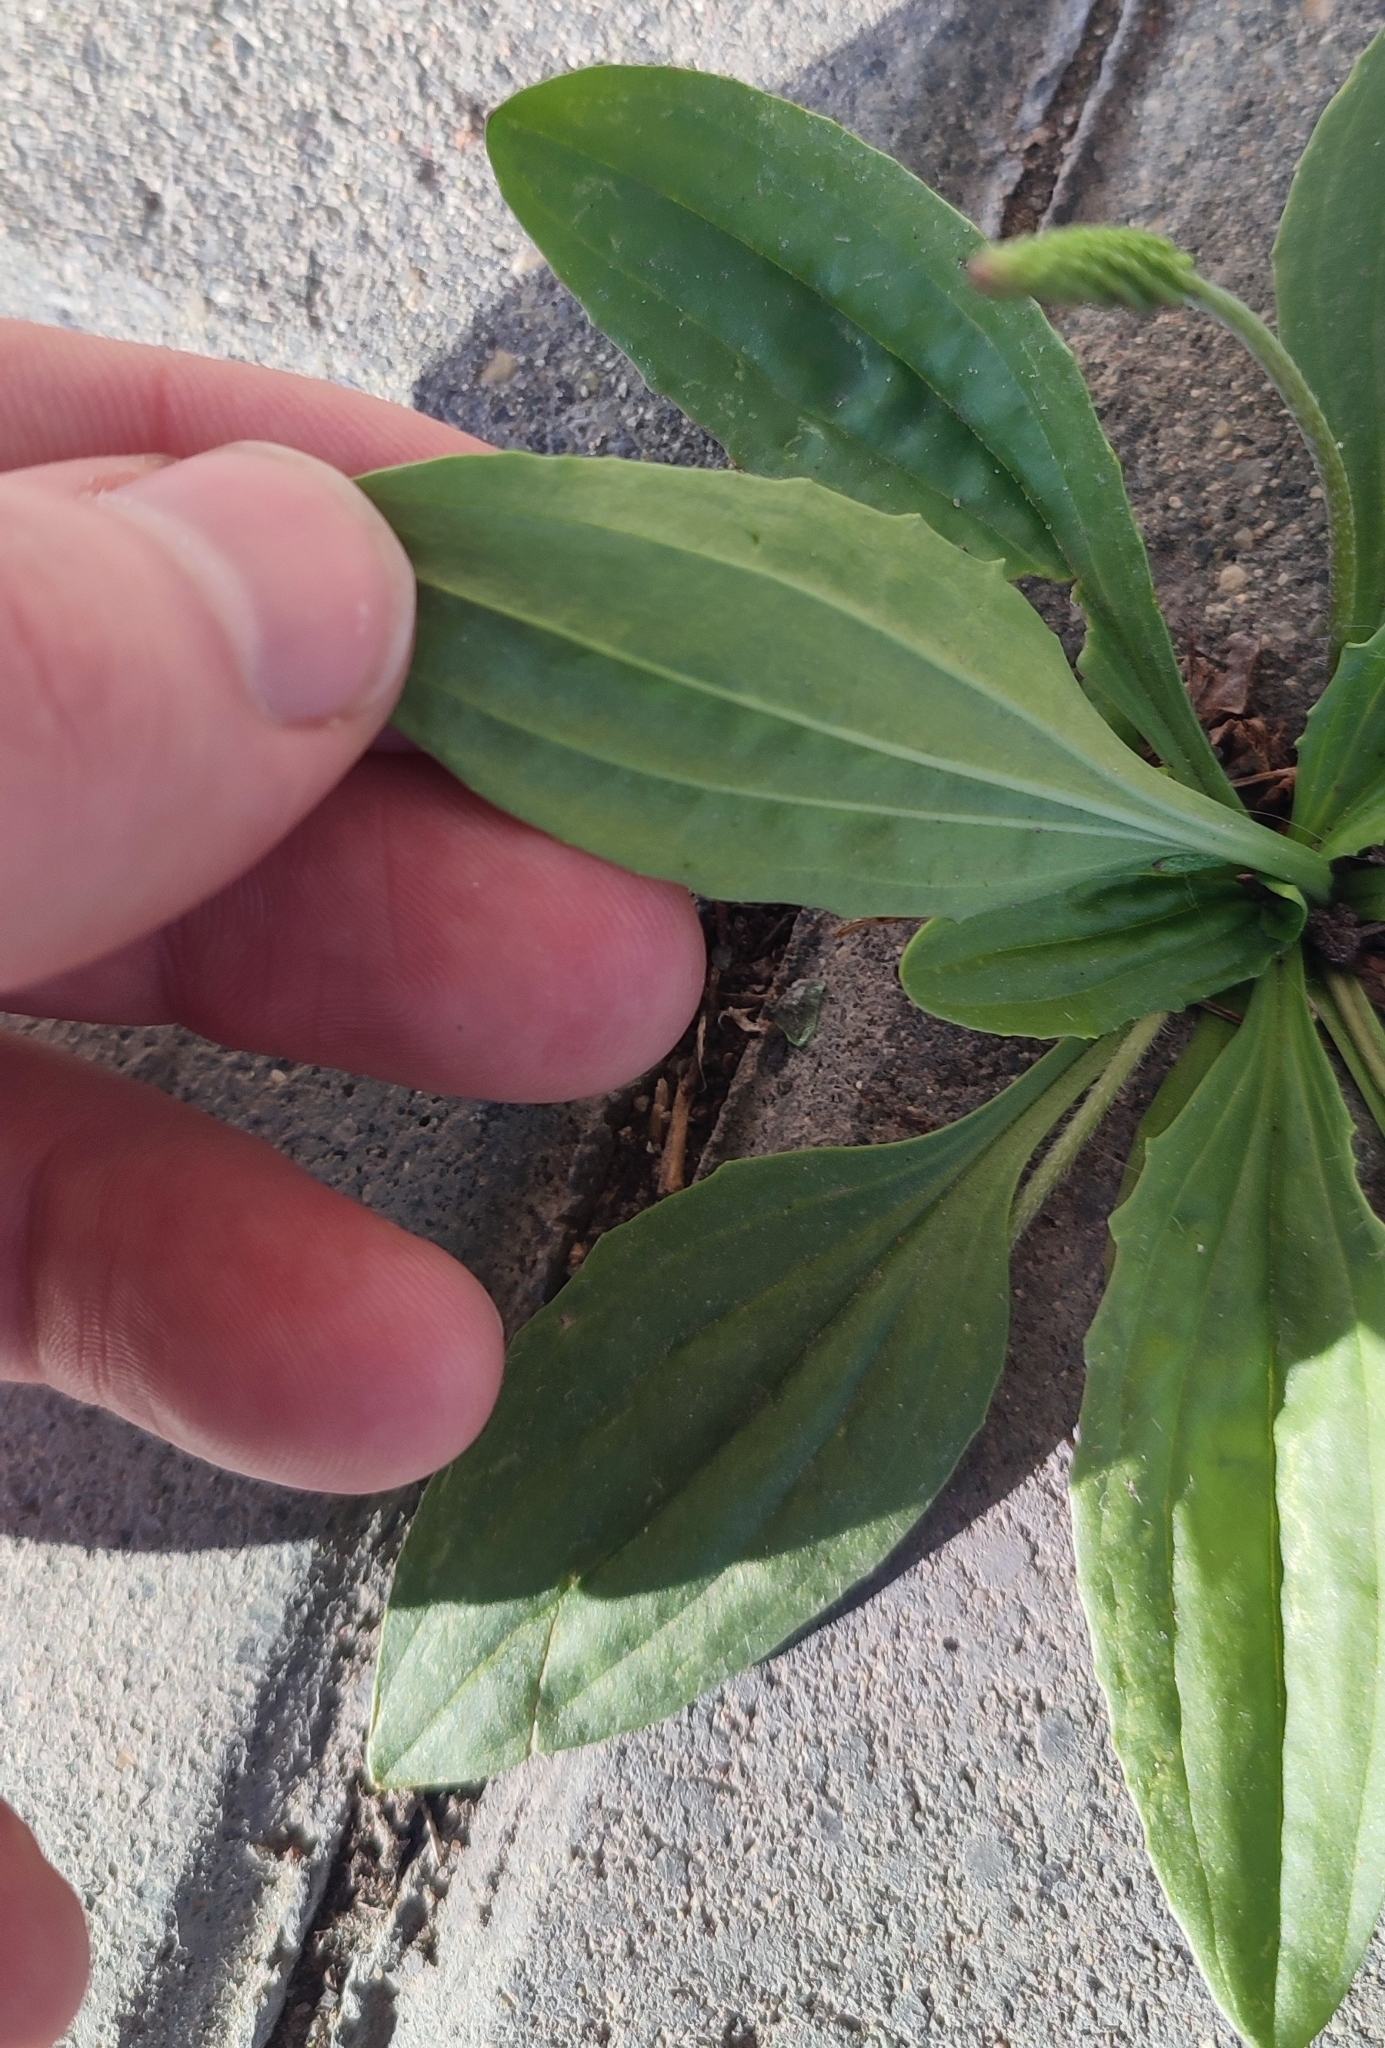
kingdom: Plantae
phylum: Tracheophyta
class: Magnoliopsida
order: Lamiales
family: Plantaginaceae
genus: Plantago
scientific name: Plantago depressa
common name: Depressed plantain
